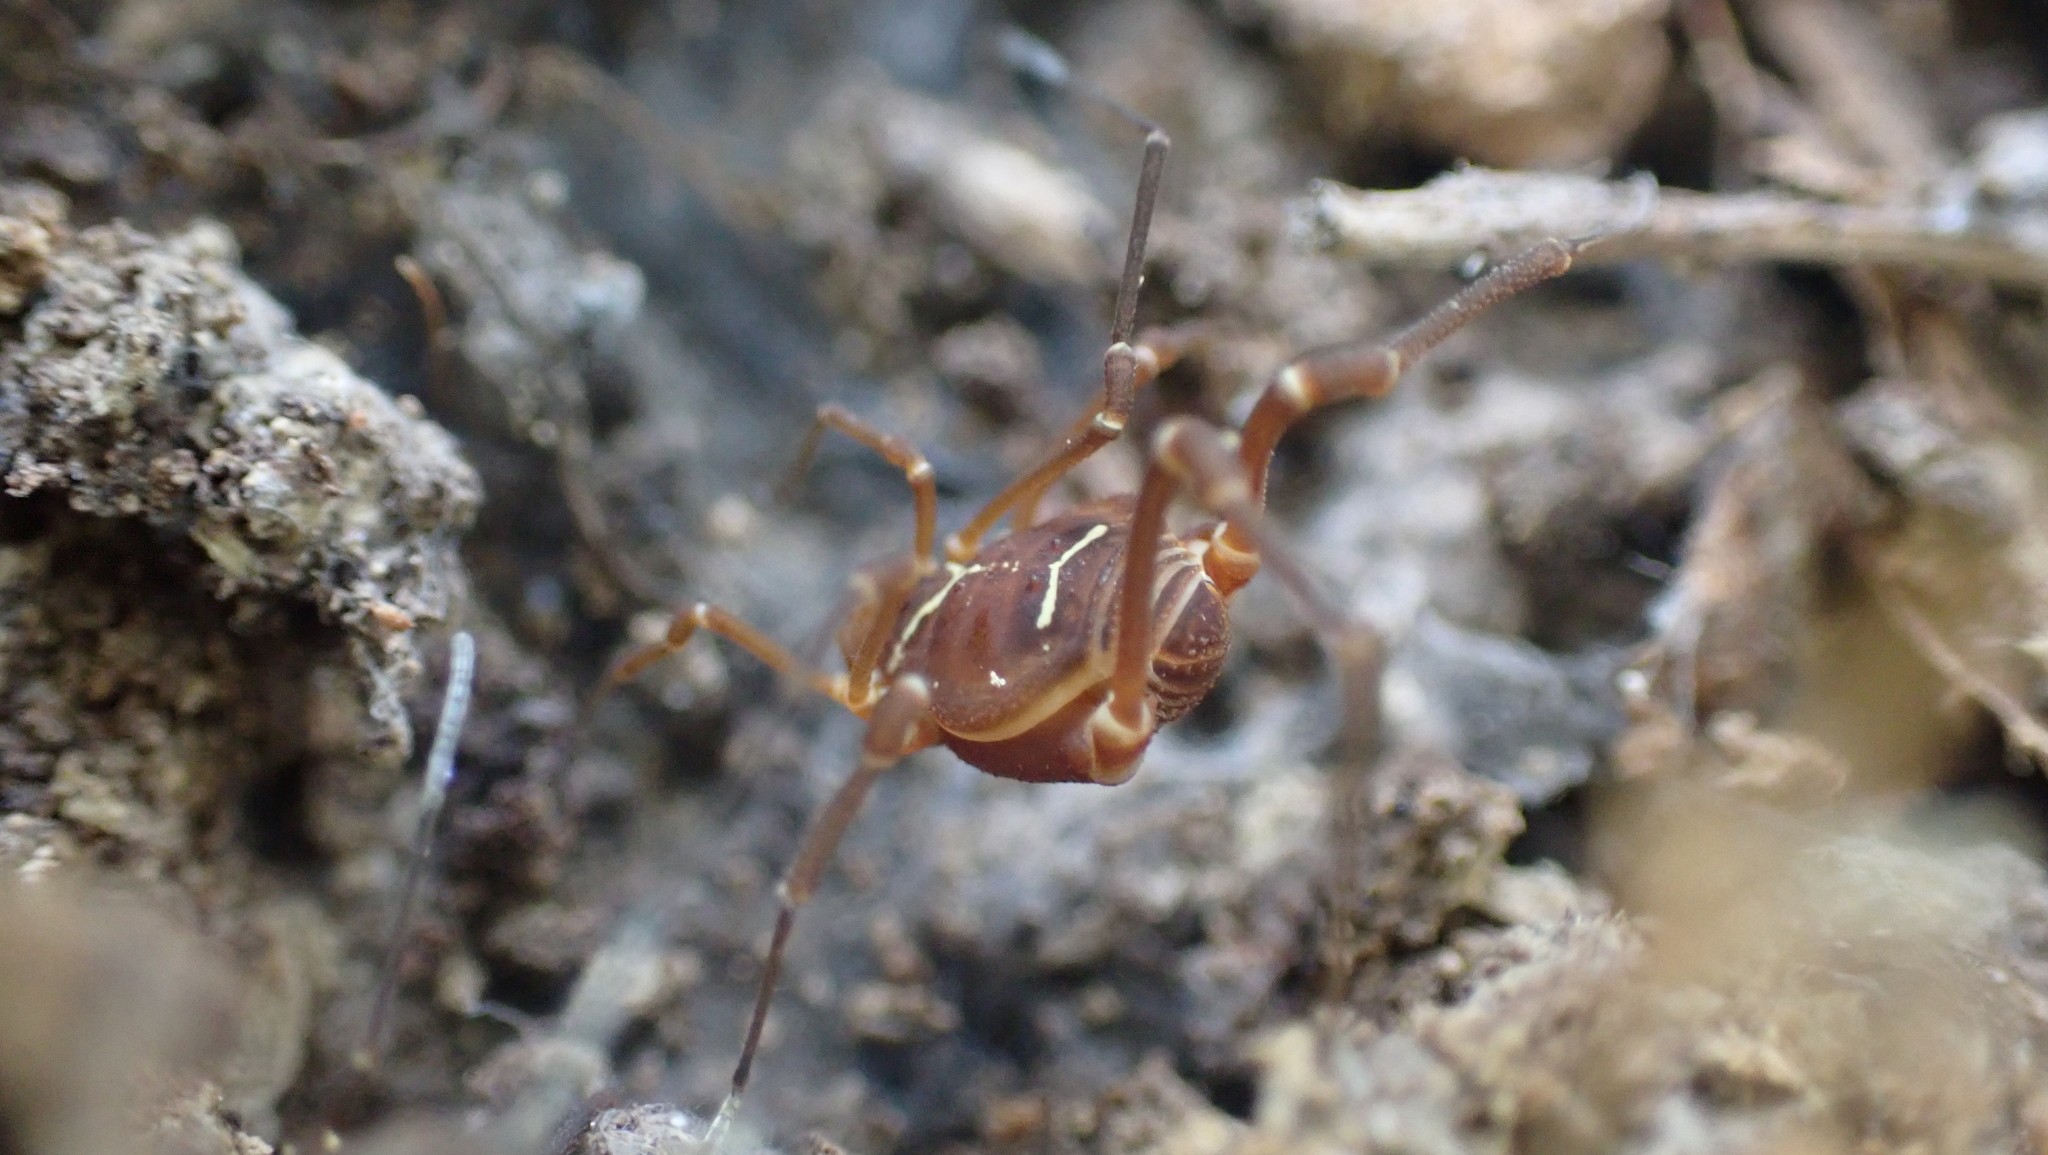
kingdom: Animalia
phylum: Arthropoda
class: Arachnida
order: Opiliones
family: Cosmetidae
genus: Libitioides
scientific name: Libitioides sayi
